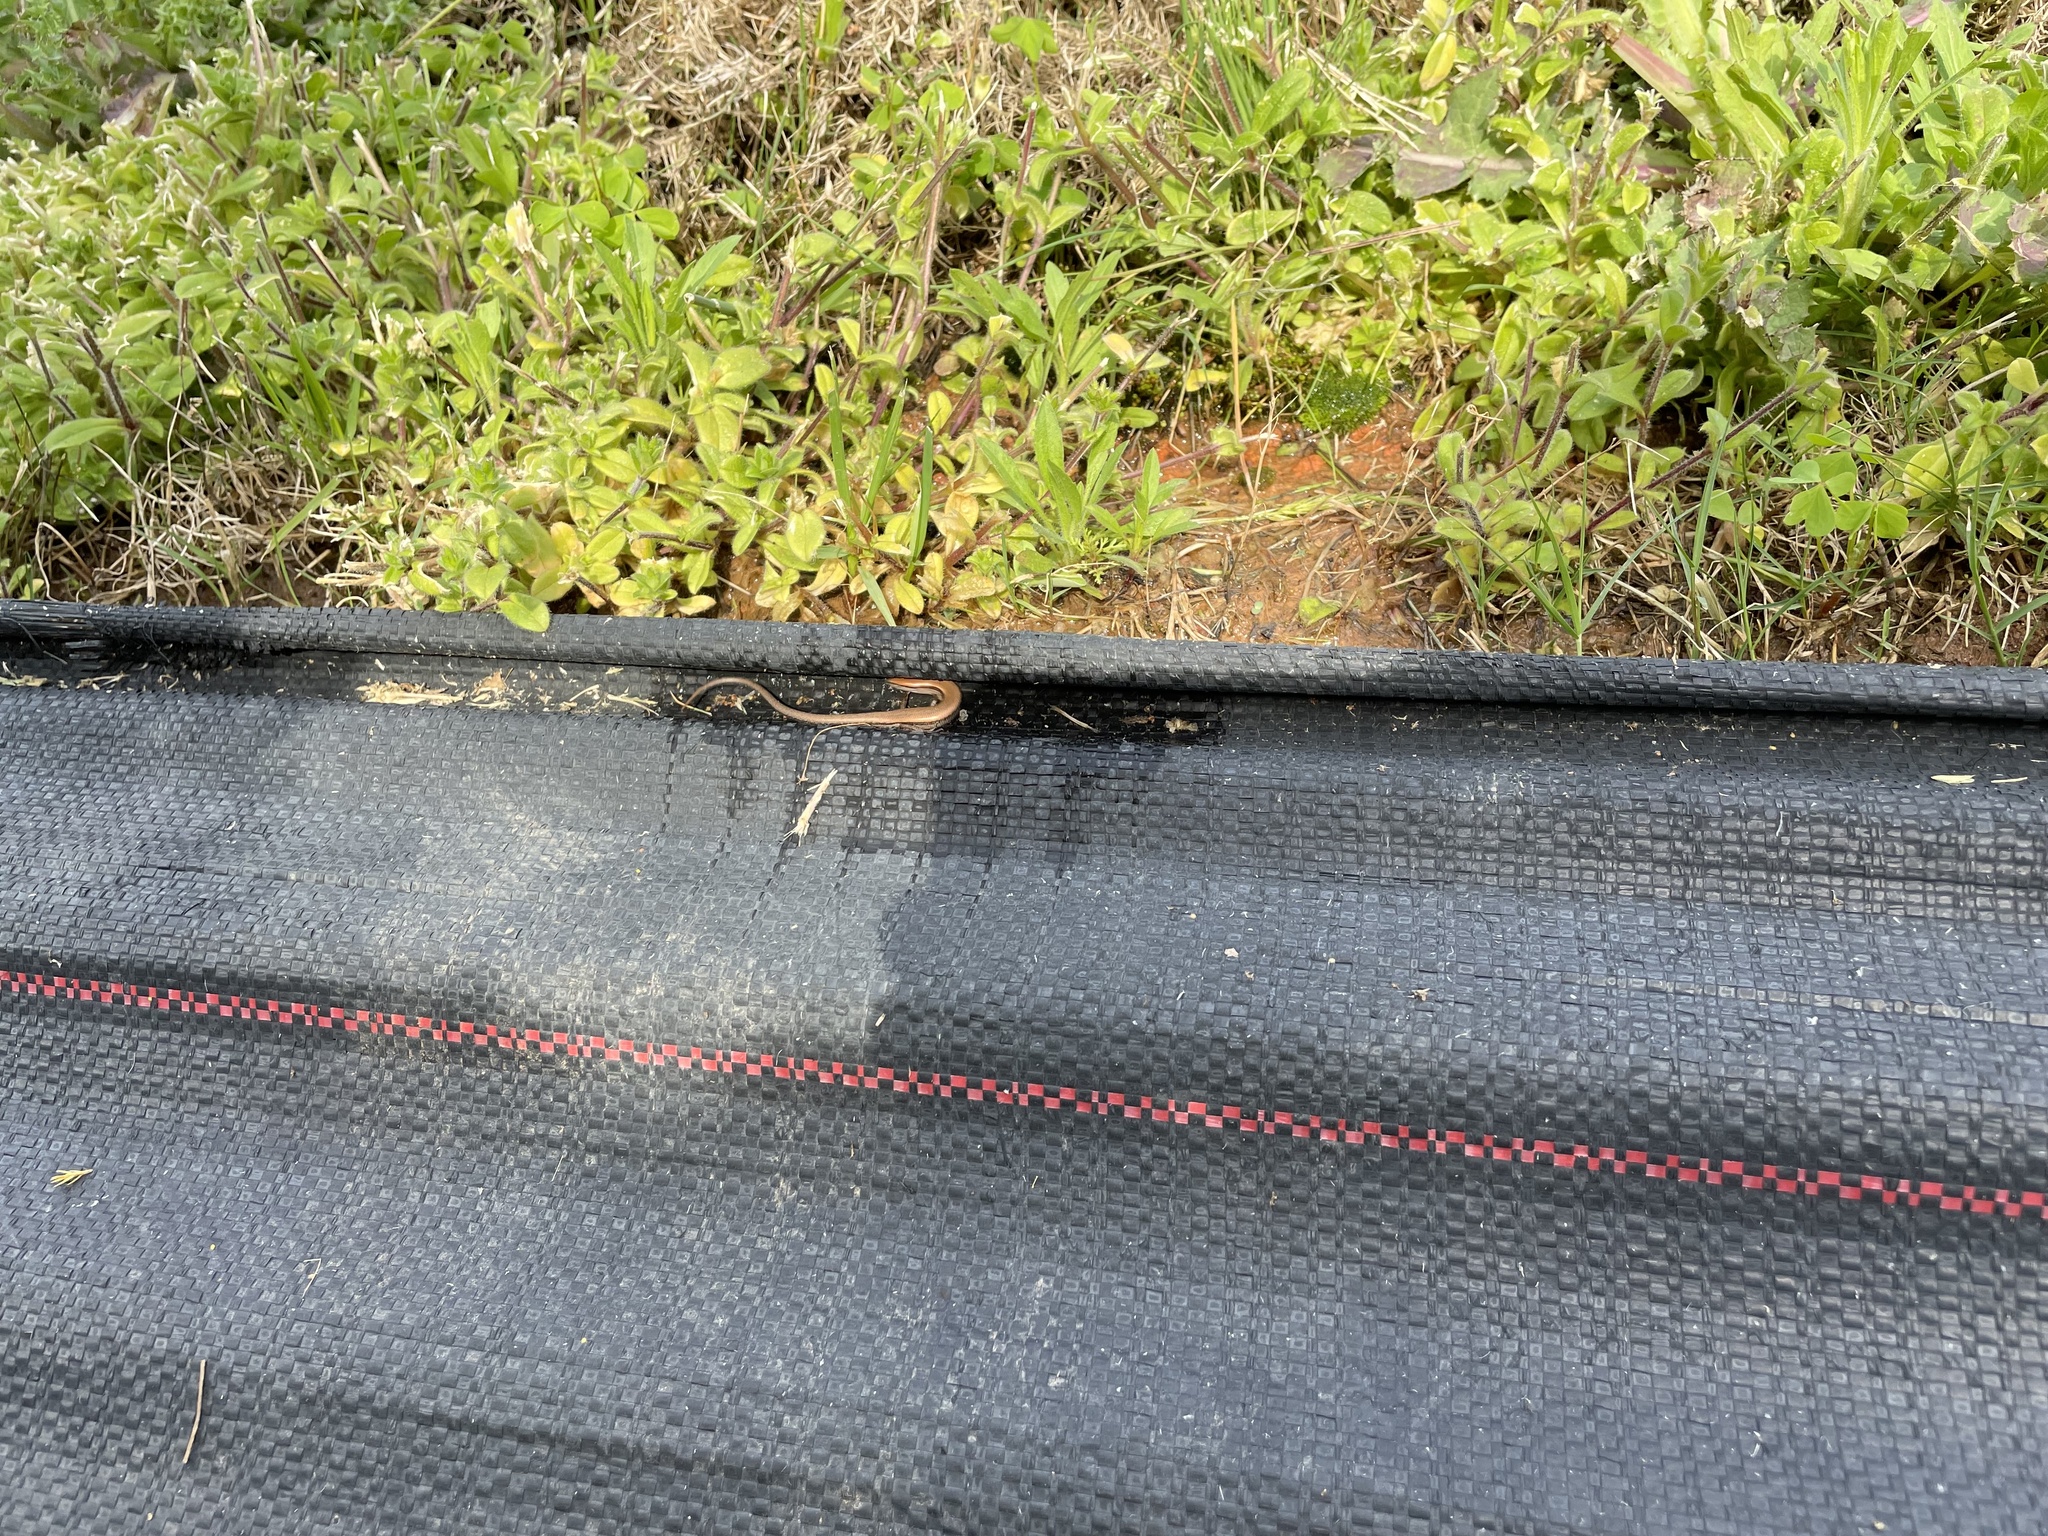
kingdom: Animalia
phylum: Chordata
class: Squamata
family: Scincidae
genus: Scincella
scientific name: Scincella lateralis
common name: Ground skink
